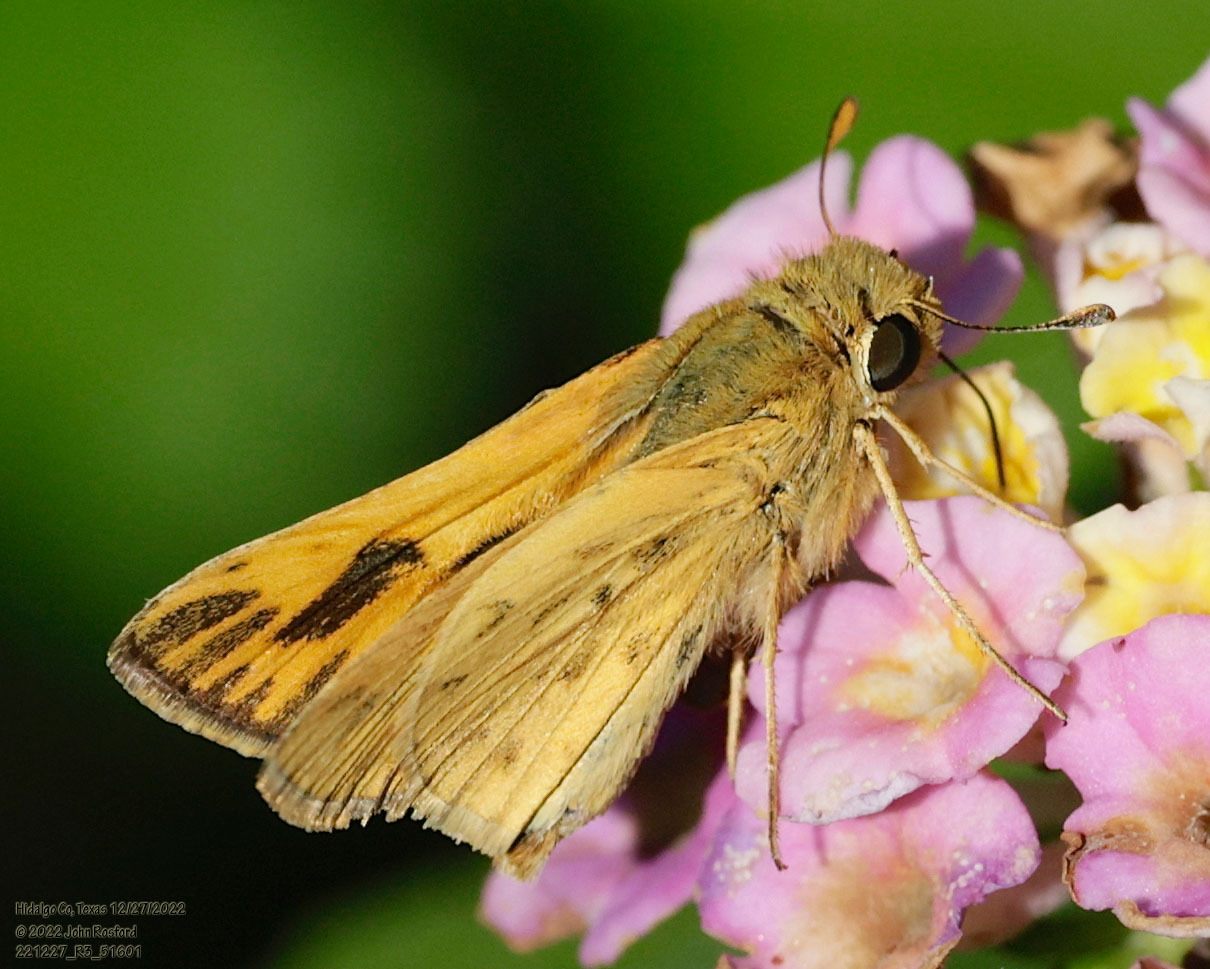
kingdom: Animalia
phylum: Arthropoda
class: Insecta
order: Lepidoptera
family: Hesperiidae
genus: Hylephila
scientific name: Hylephila phyleus
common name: Fiery skipper
